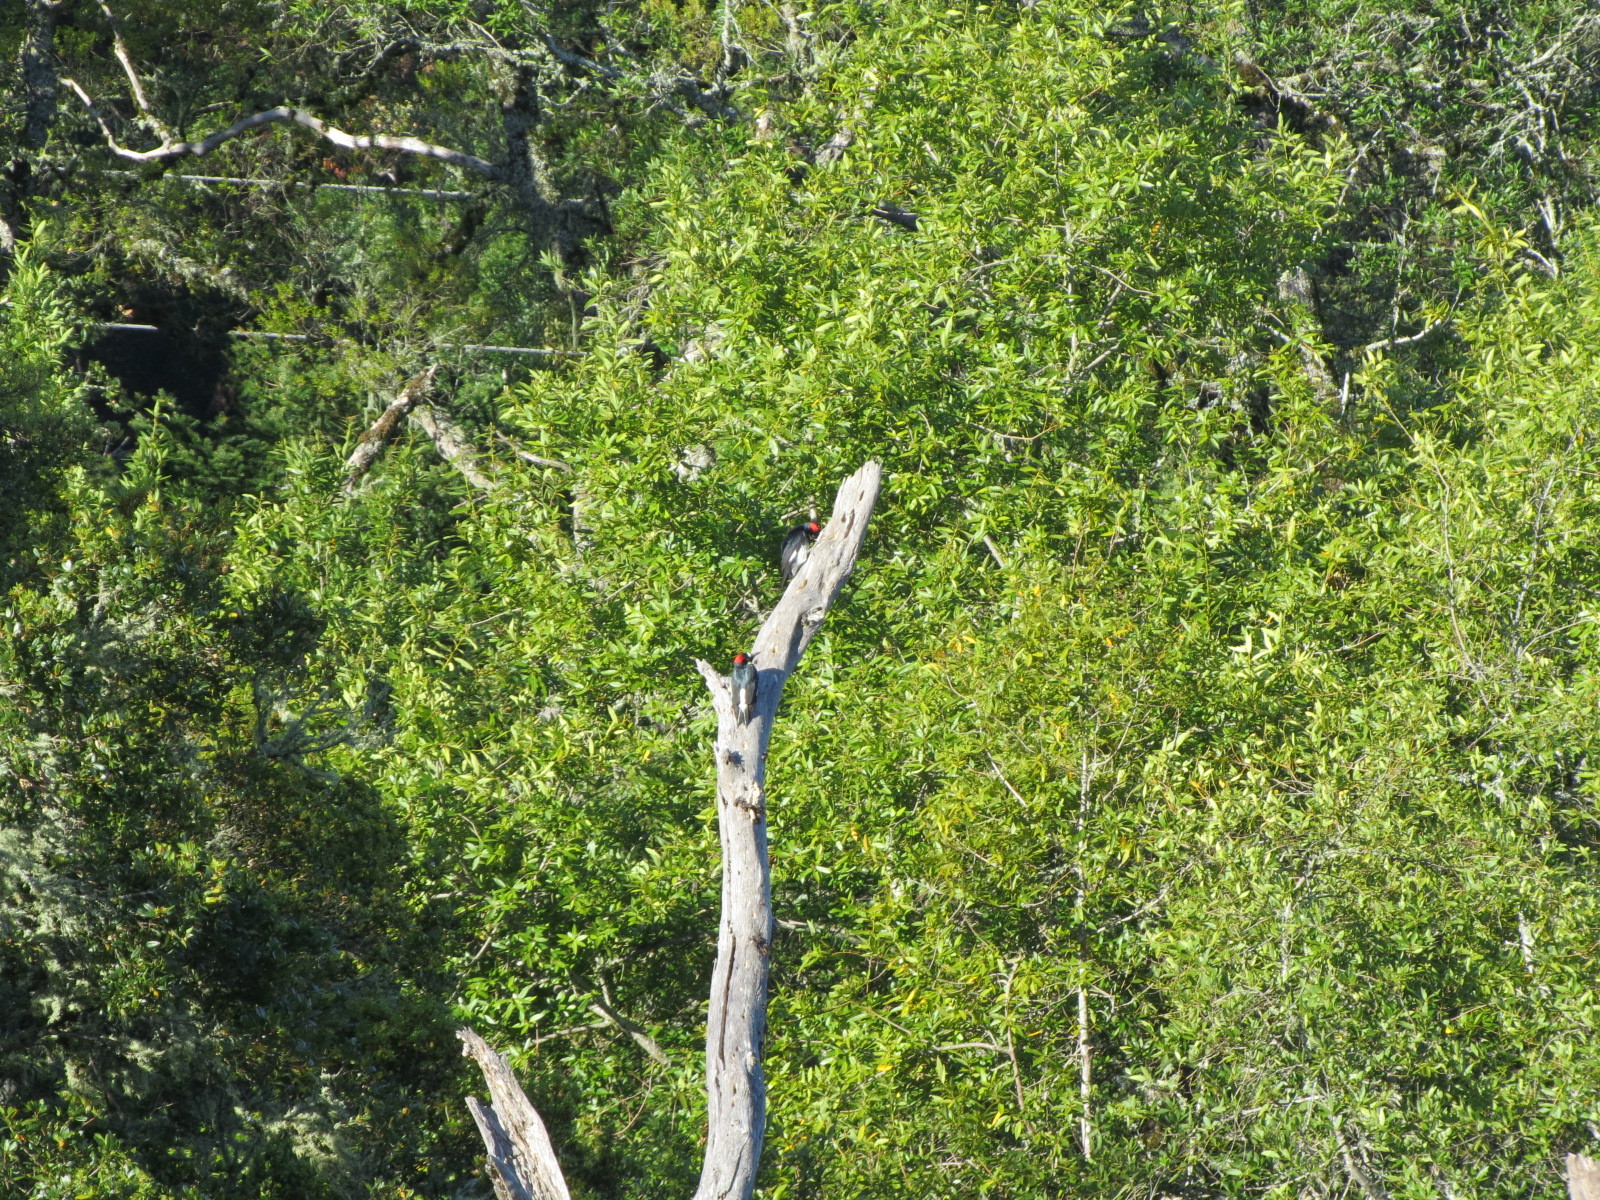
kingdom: Animalia
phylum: Chordata
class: Aves
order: Piciformes
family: Picidae
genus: Melanerpes
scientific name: Melanerpes formicivorus
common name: Acorn woodpecker
